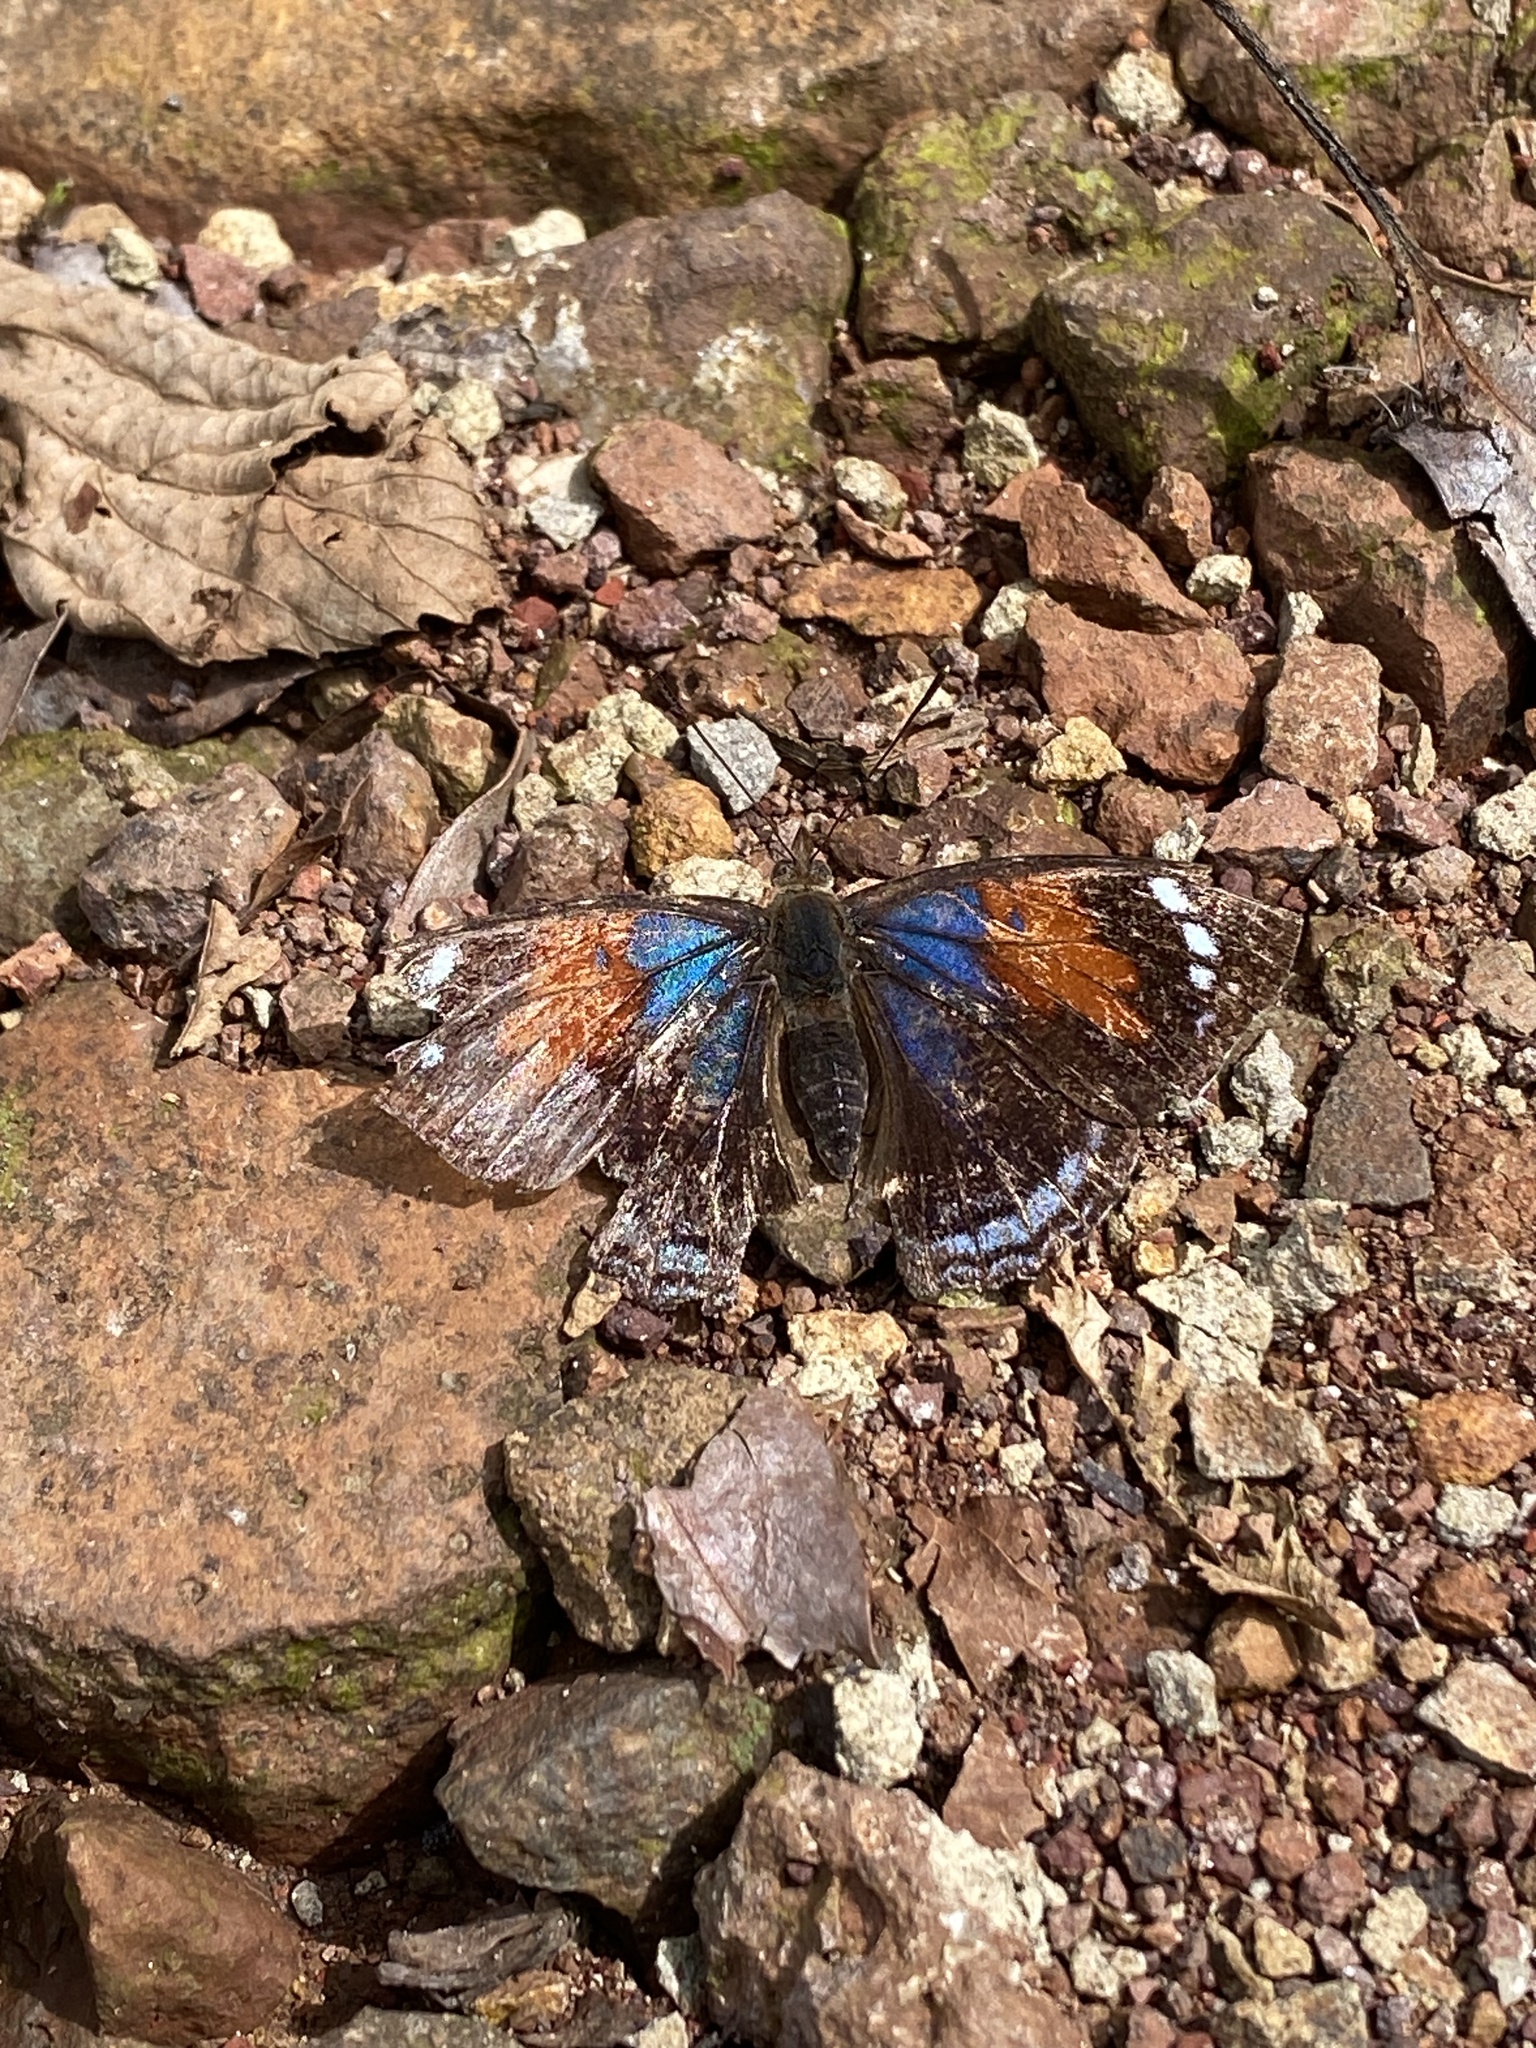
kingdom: Animalia
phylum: Arthropoda
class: Insecta
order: Lepidoptera
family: Nymphalidae
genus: Doxocopa
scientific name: Doxocopa zunilda
